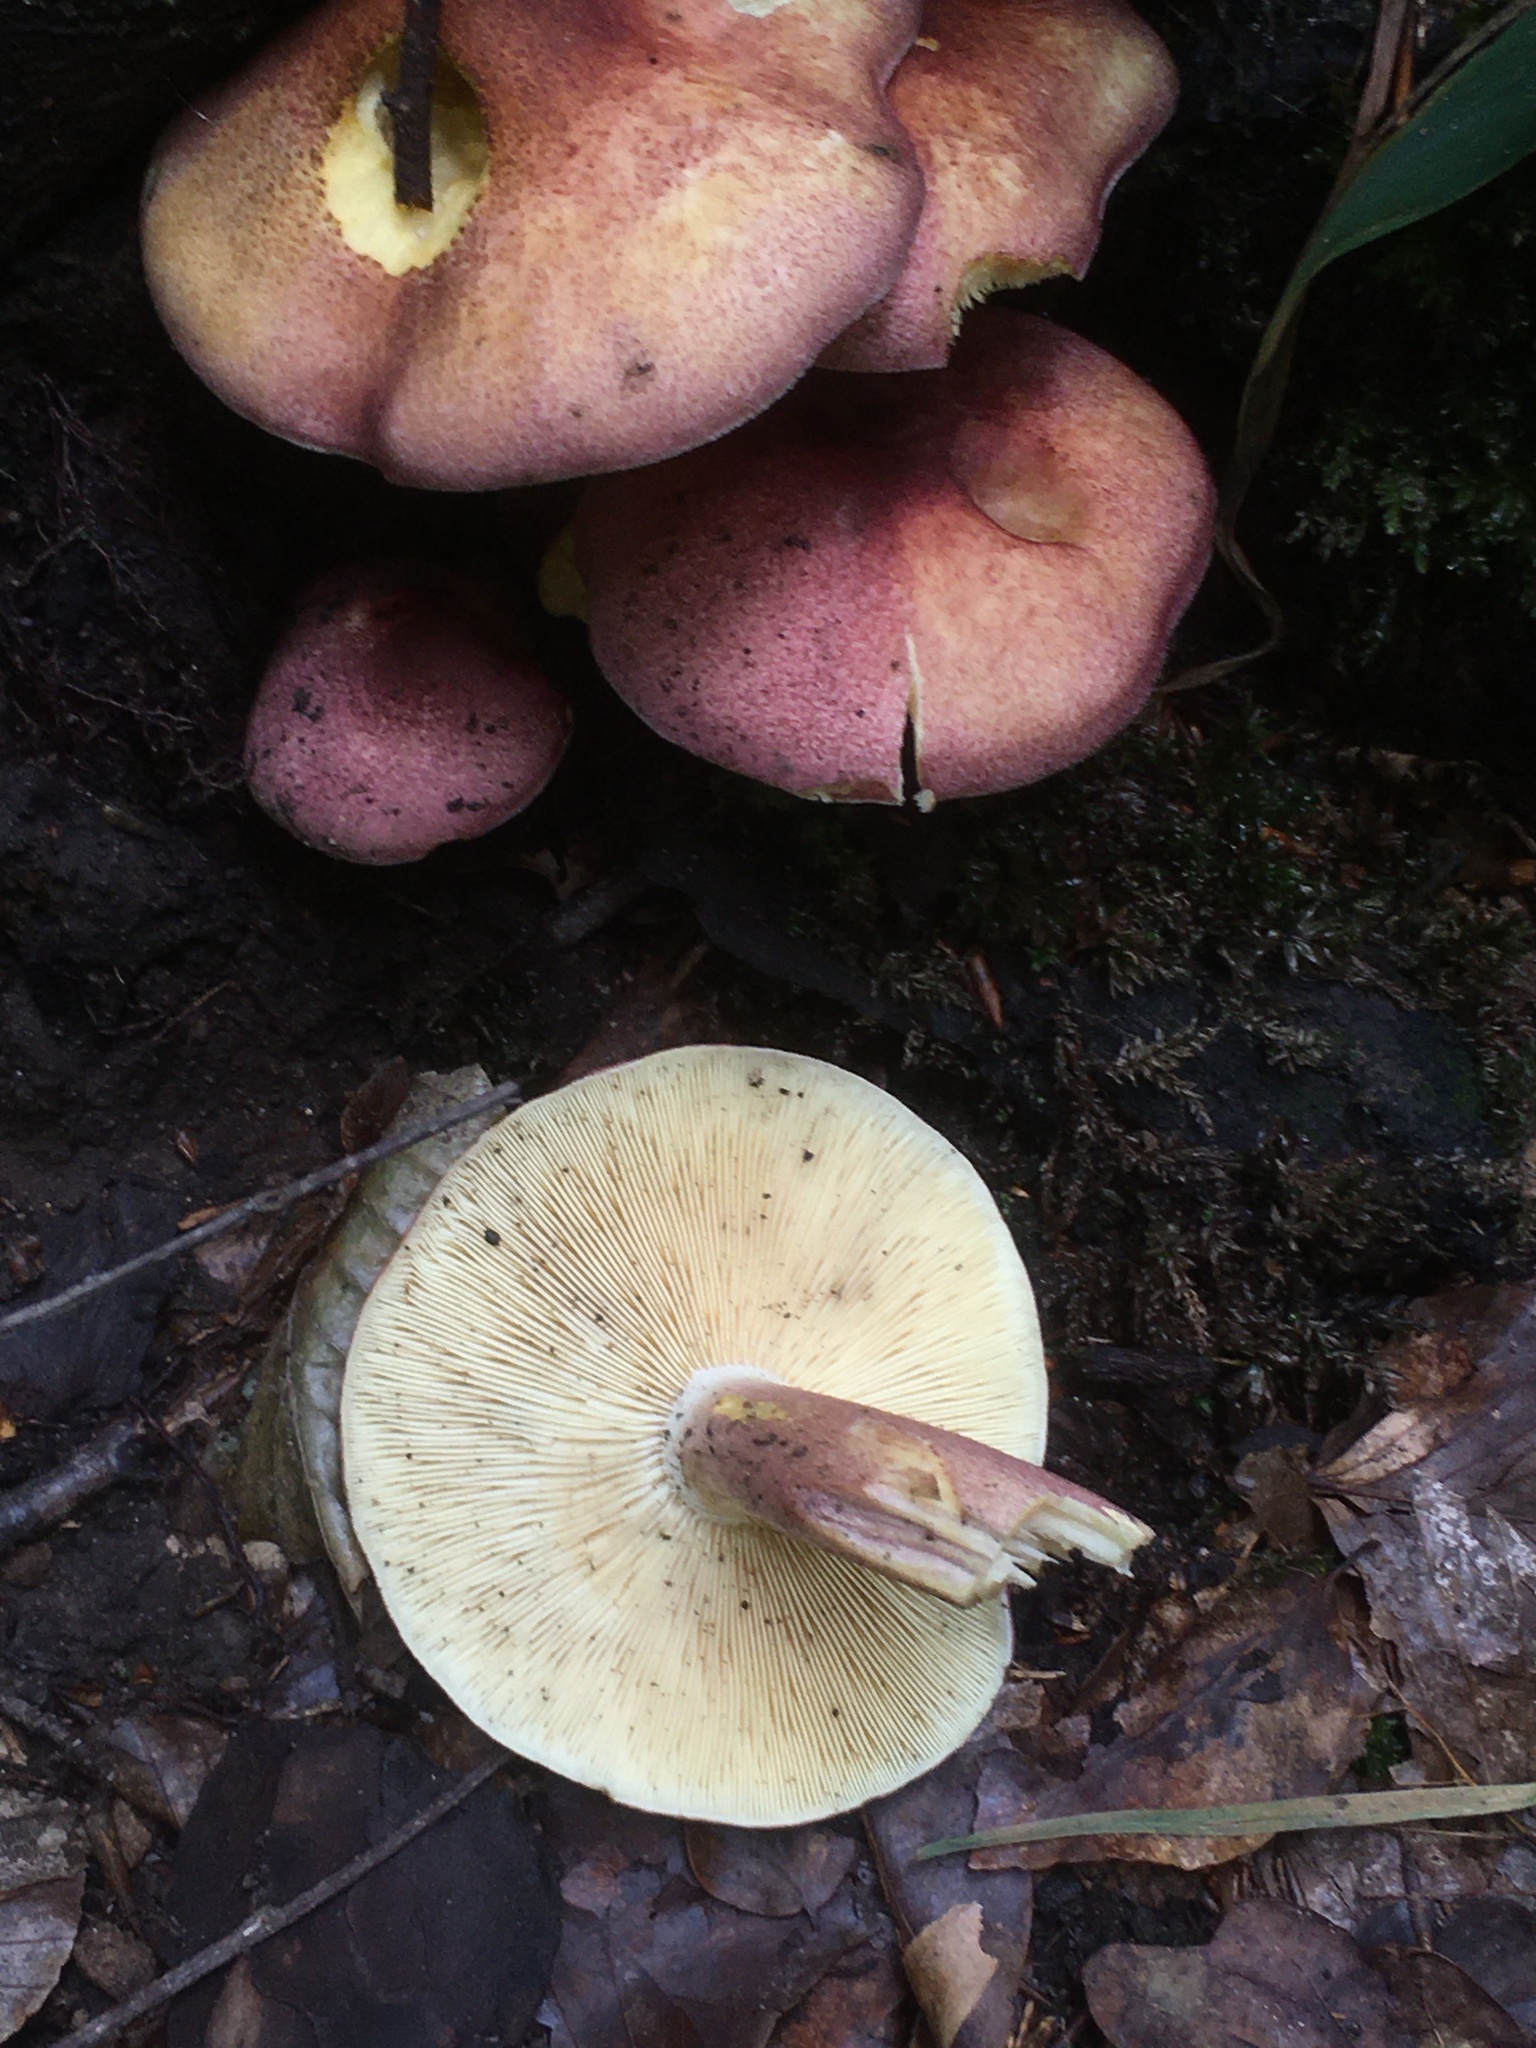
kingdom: Fungi
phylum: Basidiomycota
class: Agaricomycetes
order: Agaricales
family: Tricholomataceae
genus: Tricholomopsis
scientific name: Tricholomopsis rutilans
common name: Plums and custard
